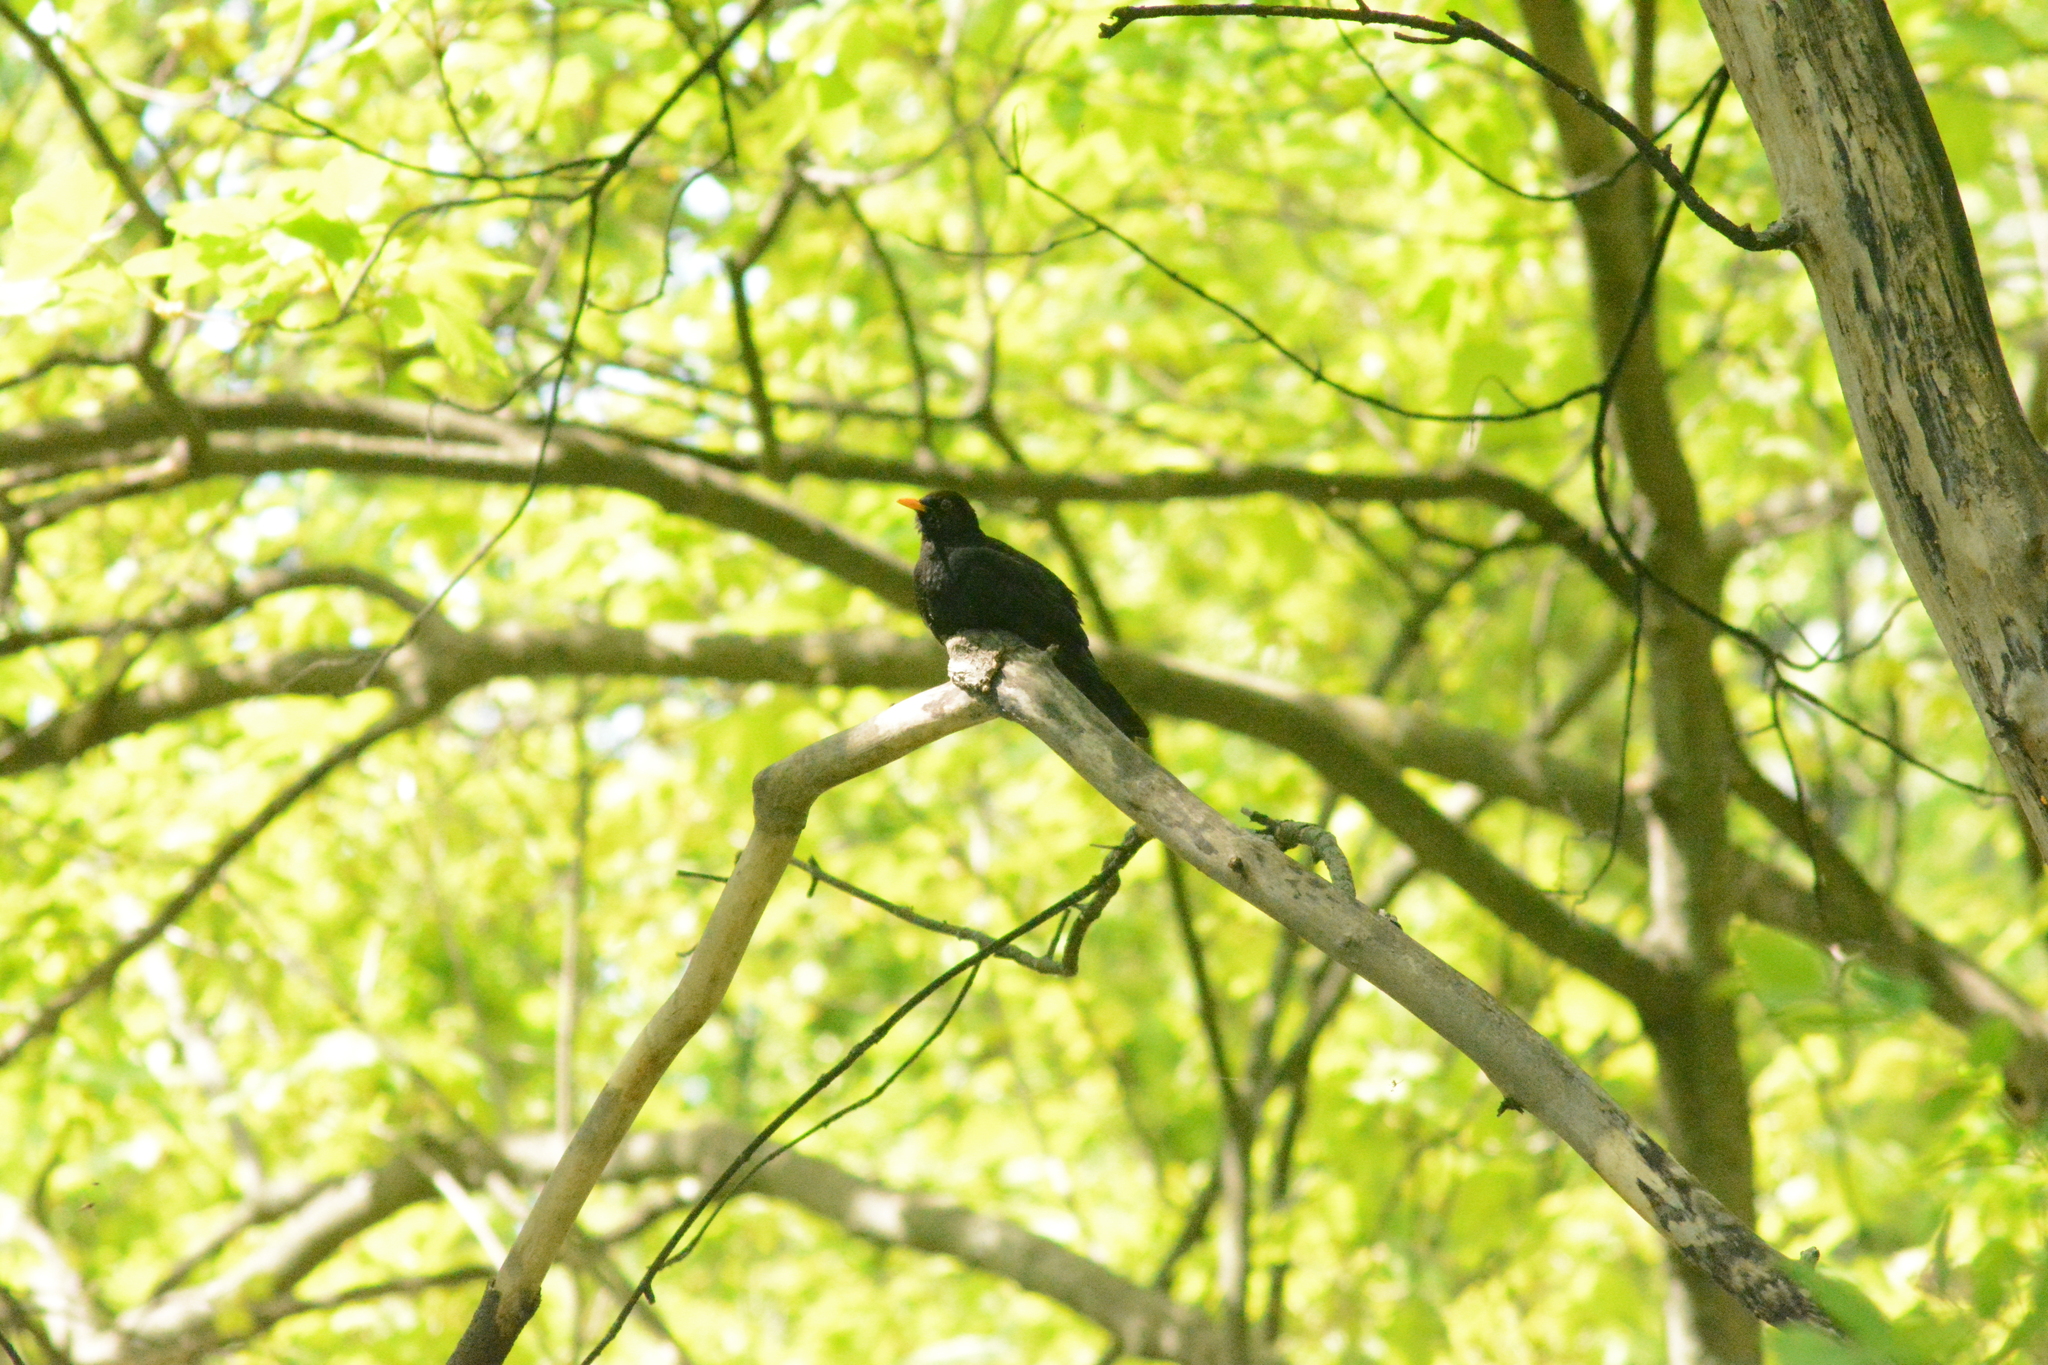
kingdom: Animalia
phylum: Chordata
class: Aves
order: Passeriformes
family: Turdidae
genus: Turdus
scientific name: Turdus merula
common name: Common blackbird
